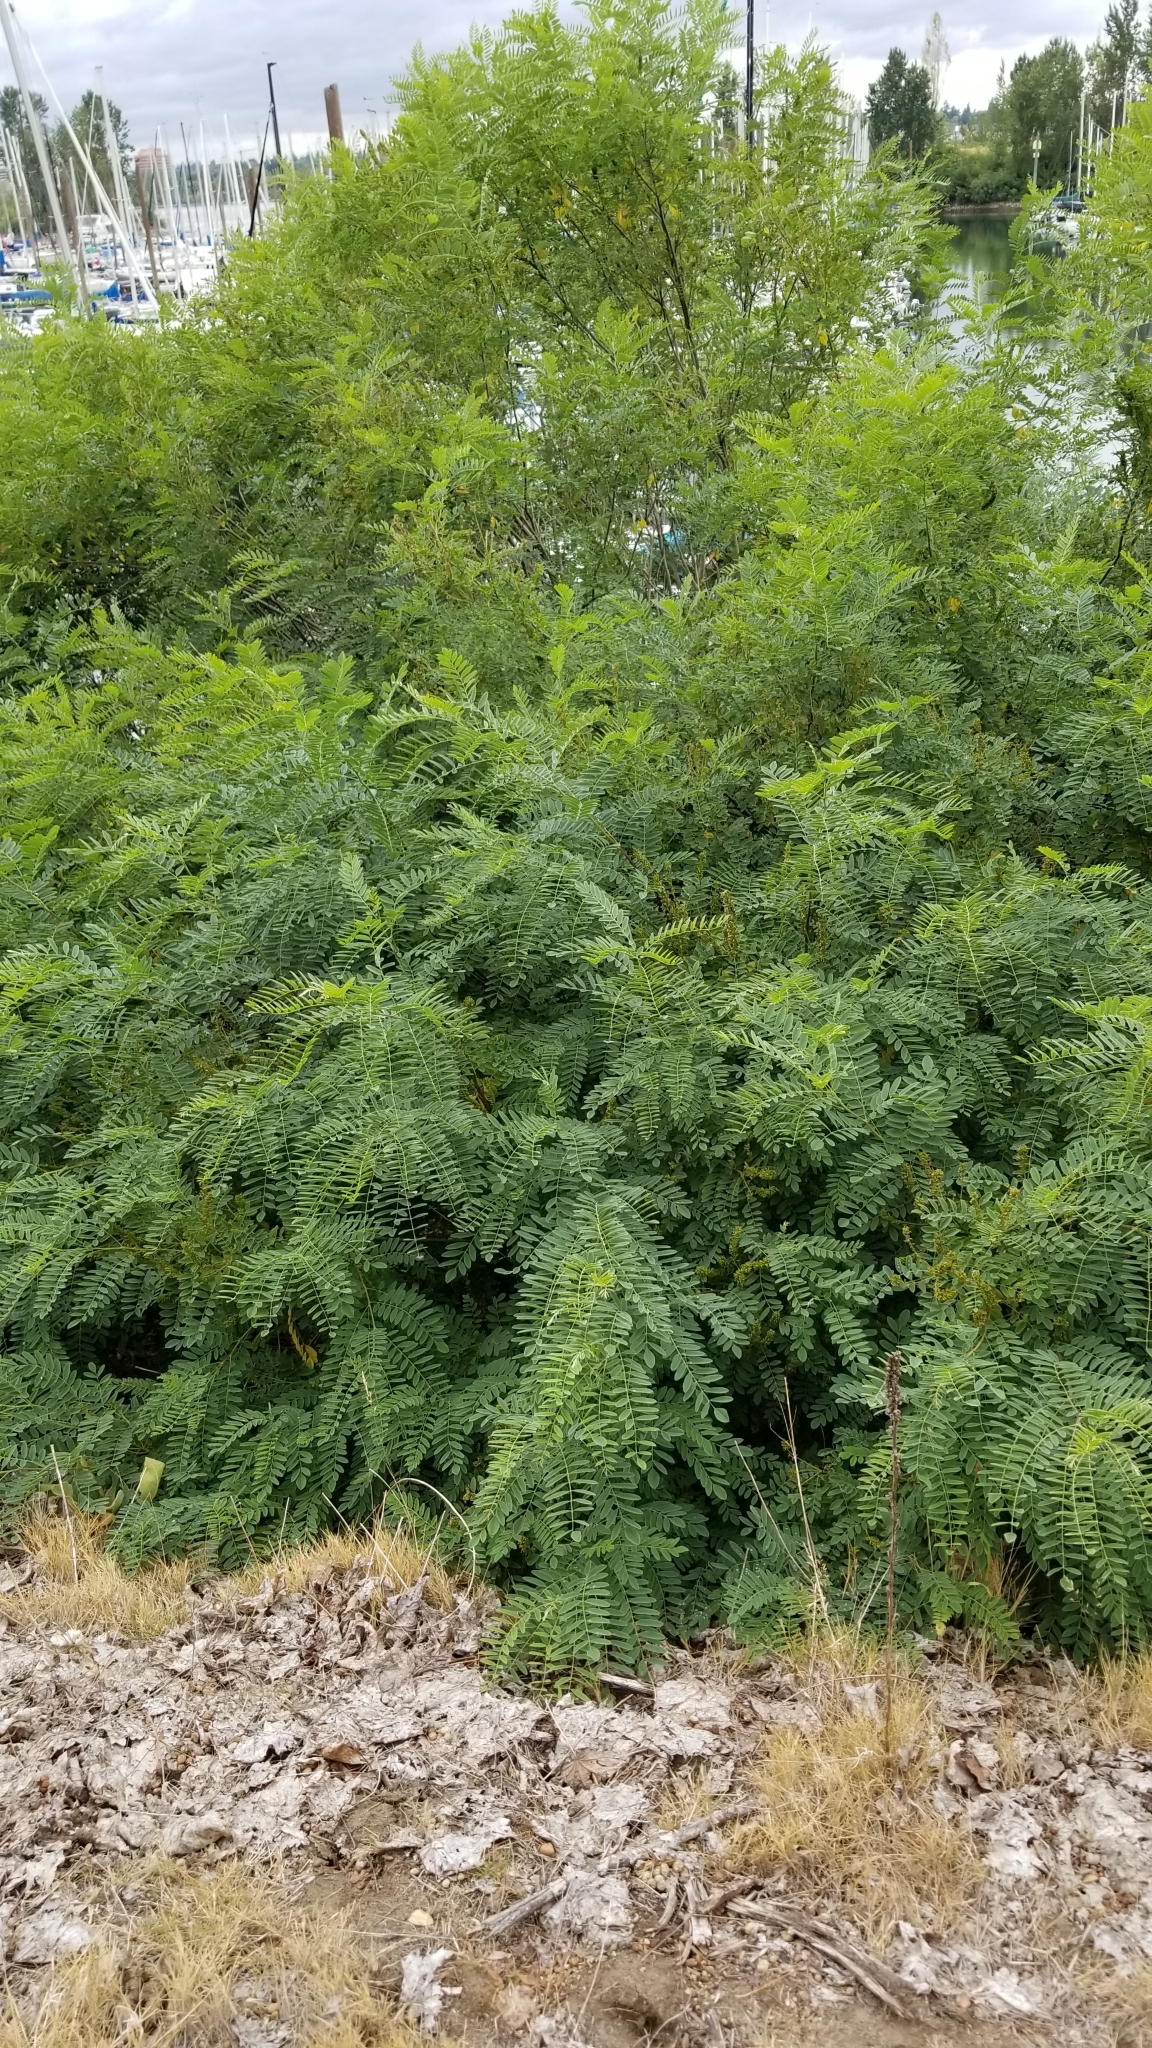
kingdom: Plantae
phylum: Tracheophyta
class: Magnoliopsida
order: Fabales
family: Fabaceae
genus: Amorpha
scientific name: Amorpha fruticosa
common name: False indigo
